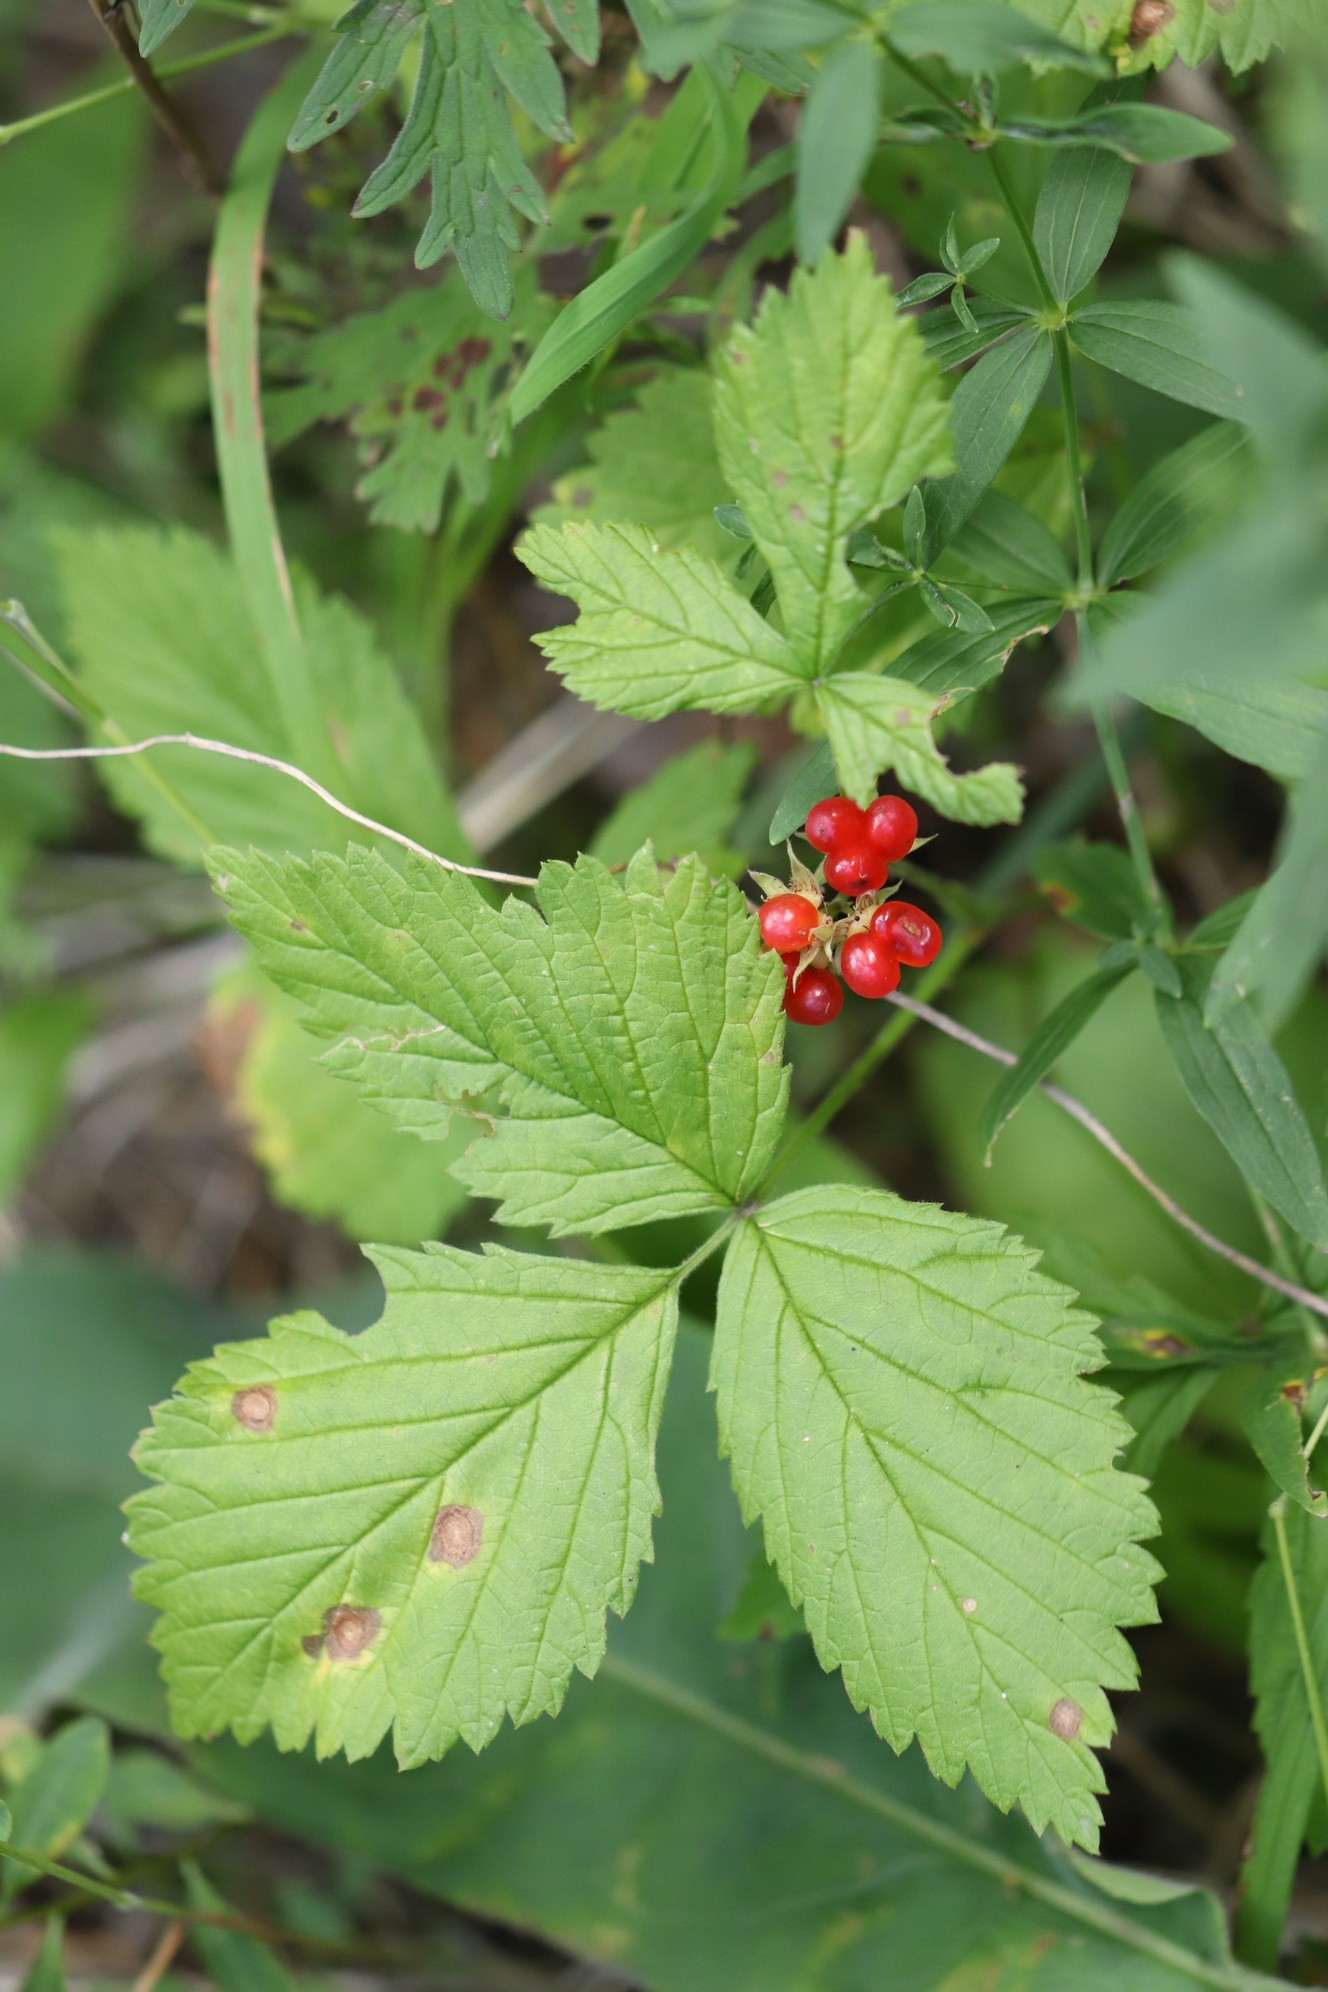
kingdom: Plantae
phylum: Tracheophyta
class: Magnoliopsida
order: Rosales
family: Rosaceae
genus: Rubus
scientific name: Rubus saxatilis
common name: Stone bramble
